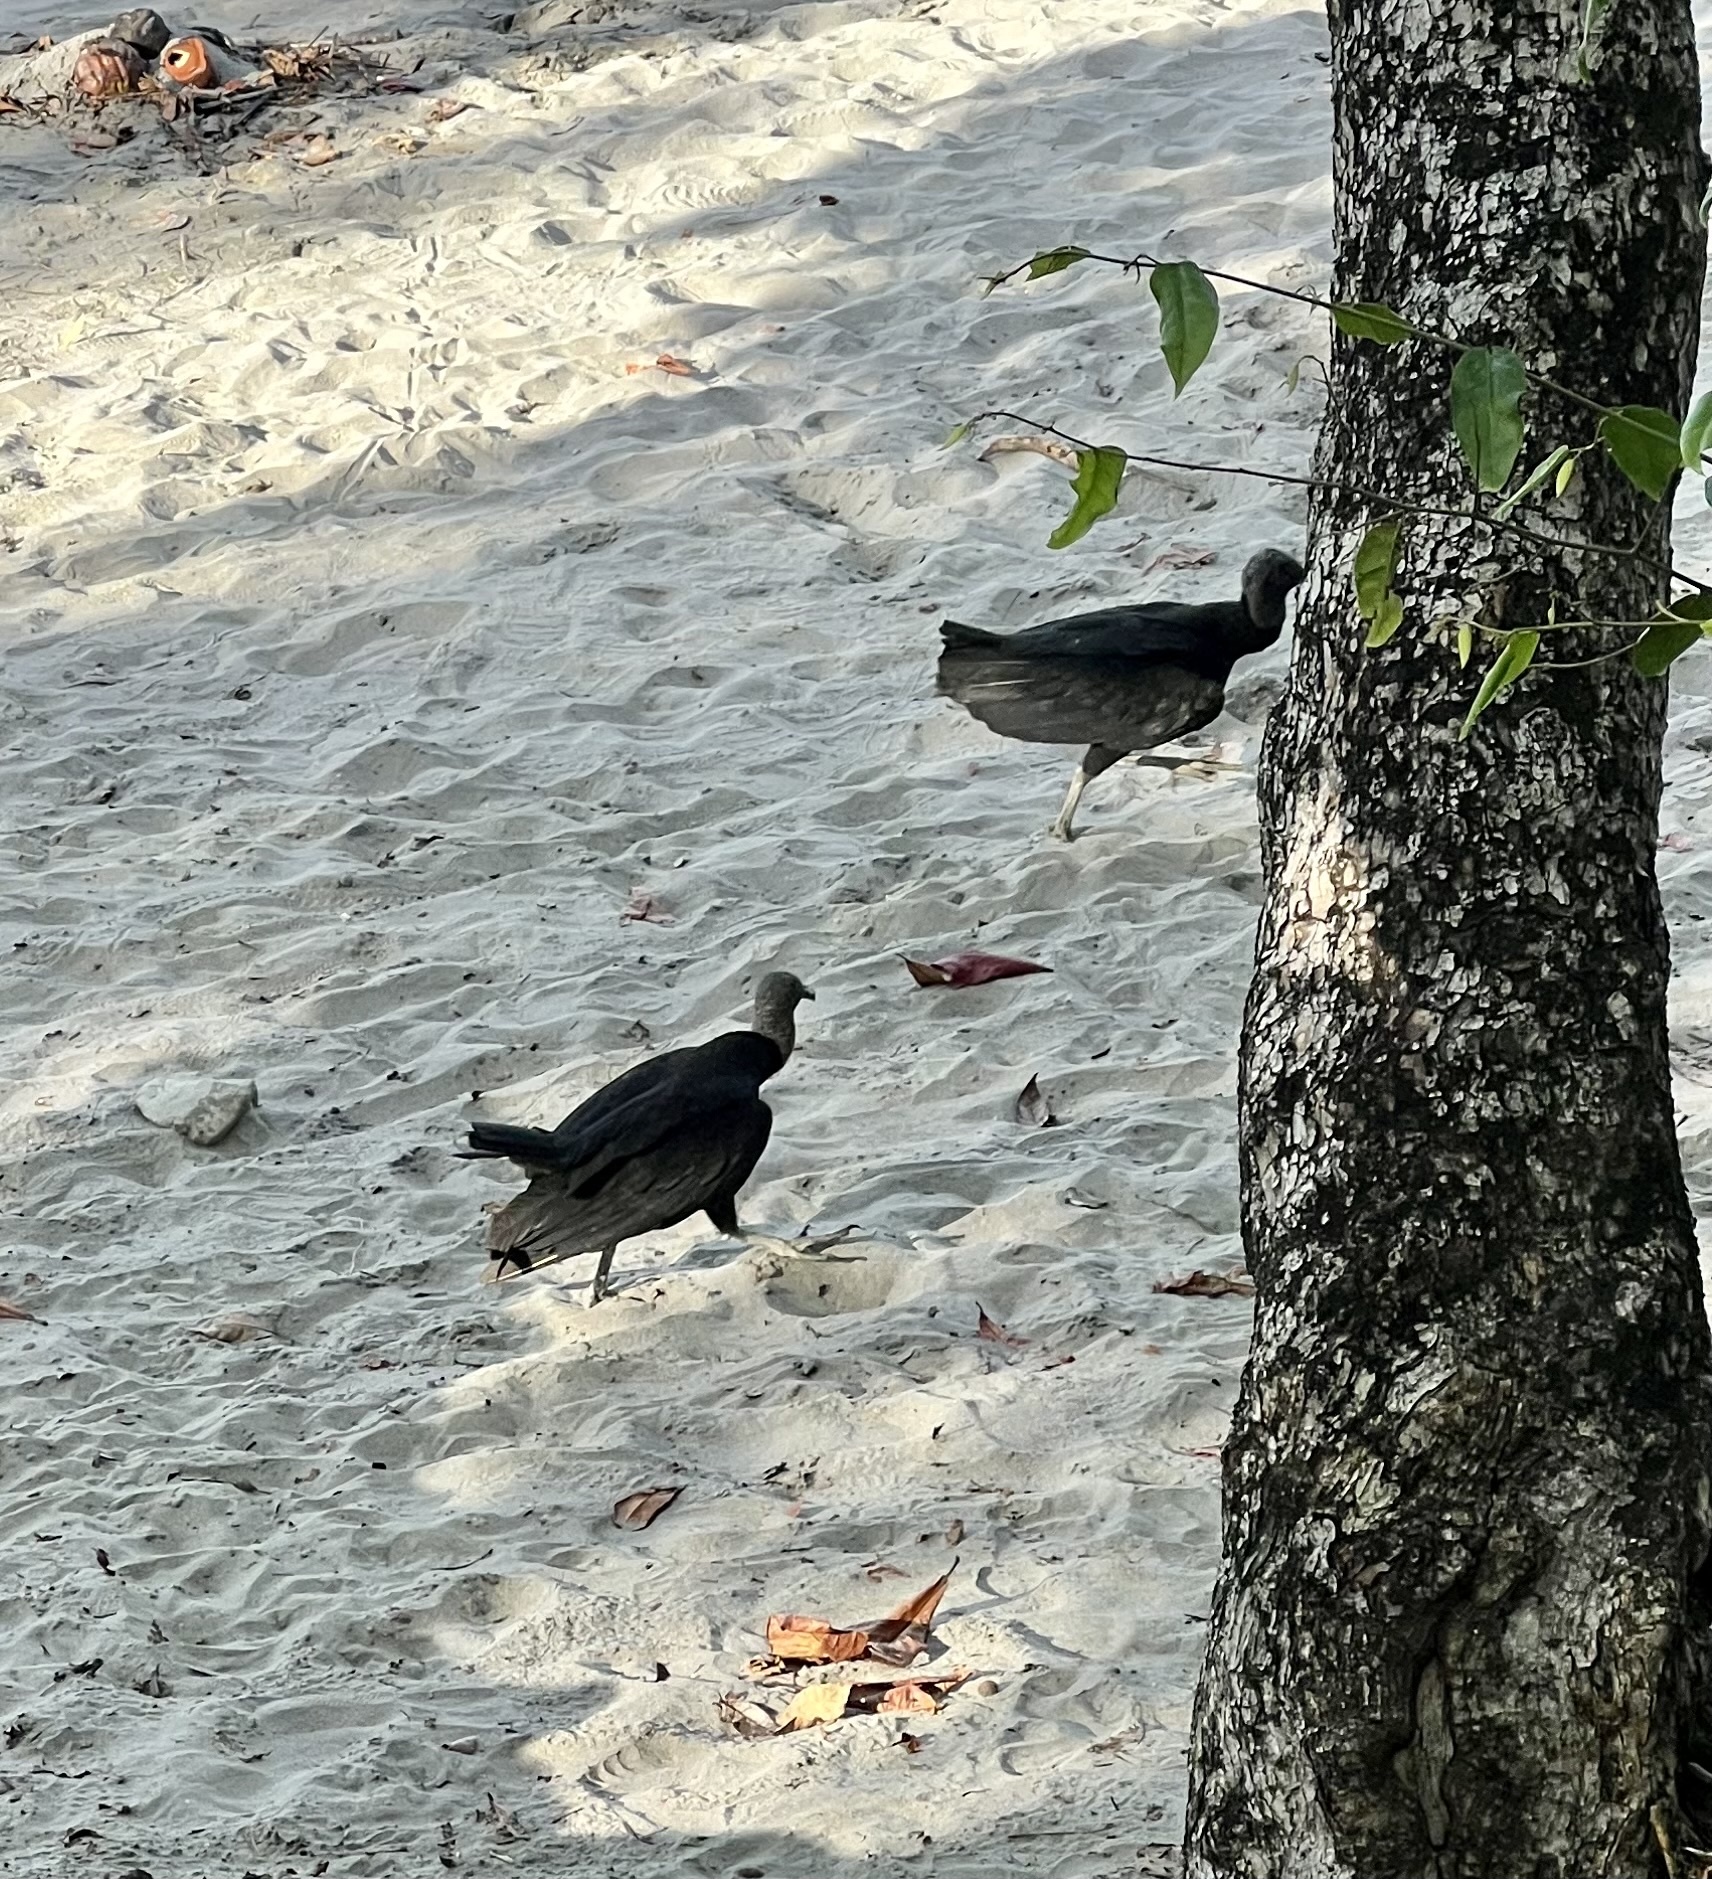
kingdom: Animalia
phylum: Chordata
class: Aves
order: Accipitriformes
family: Cathartidae
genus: Coragyps
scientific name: Coragyps atratus
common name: Black vulture
